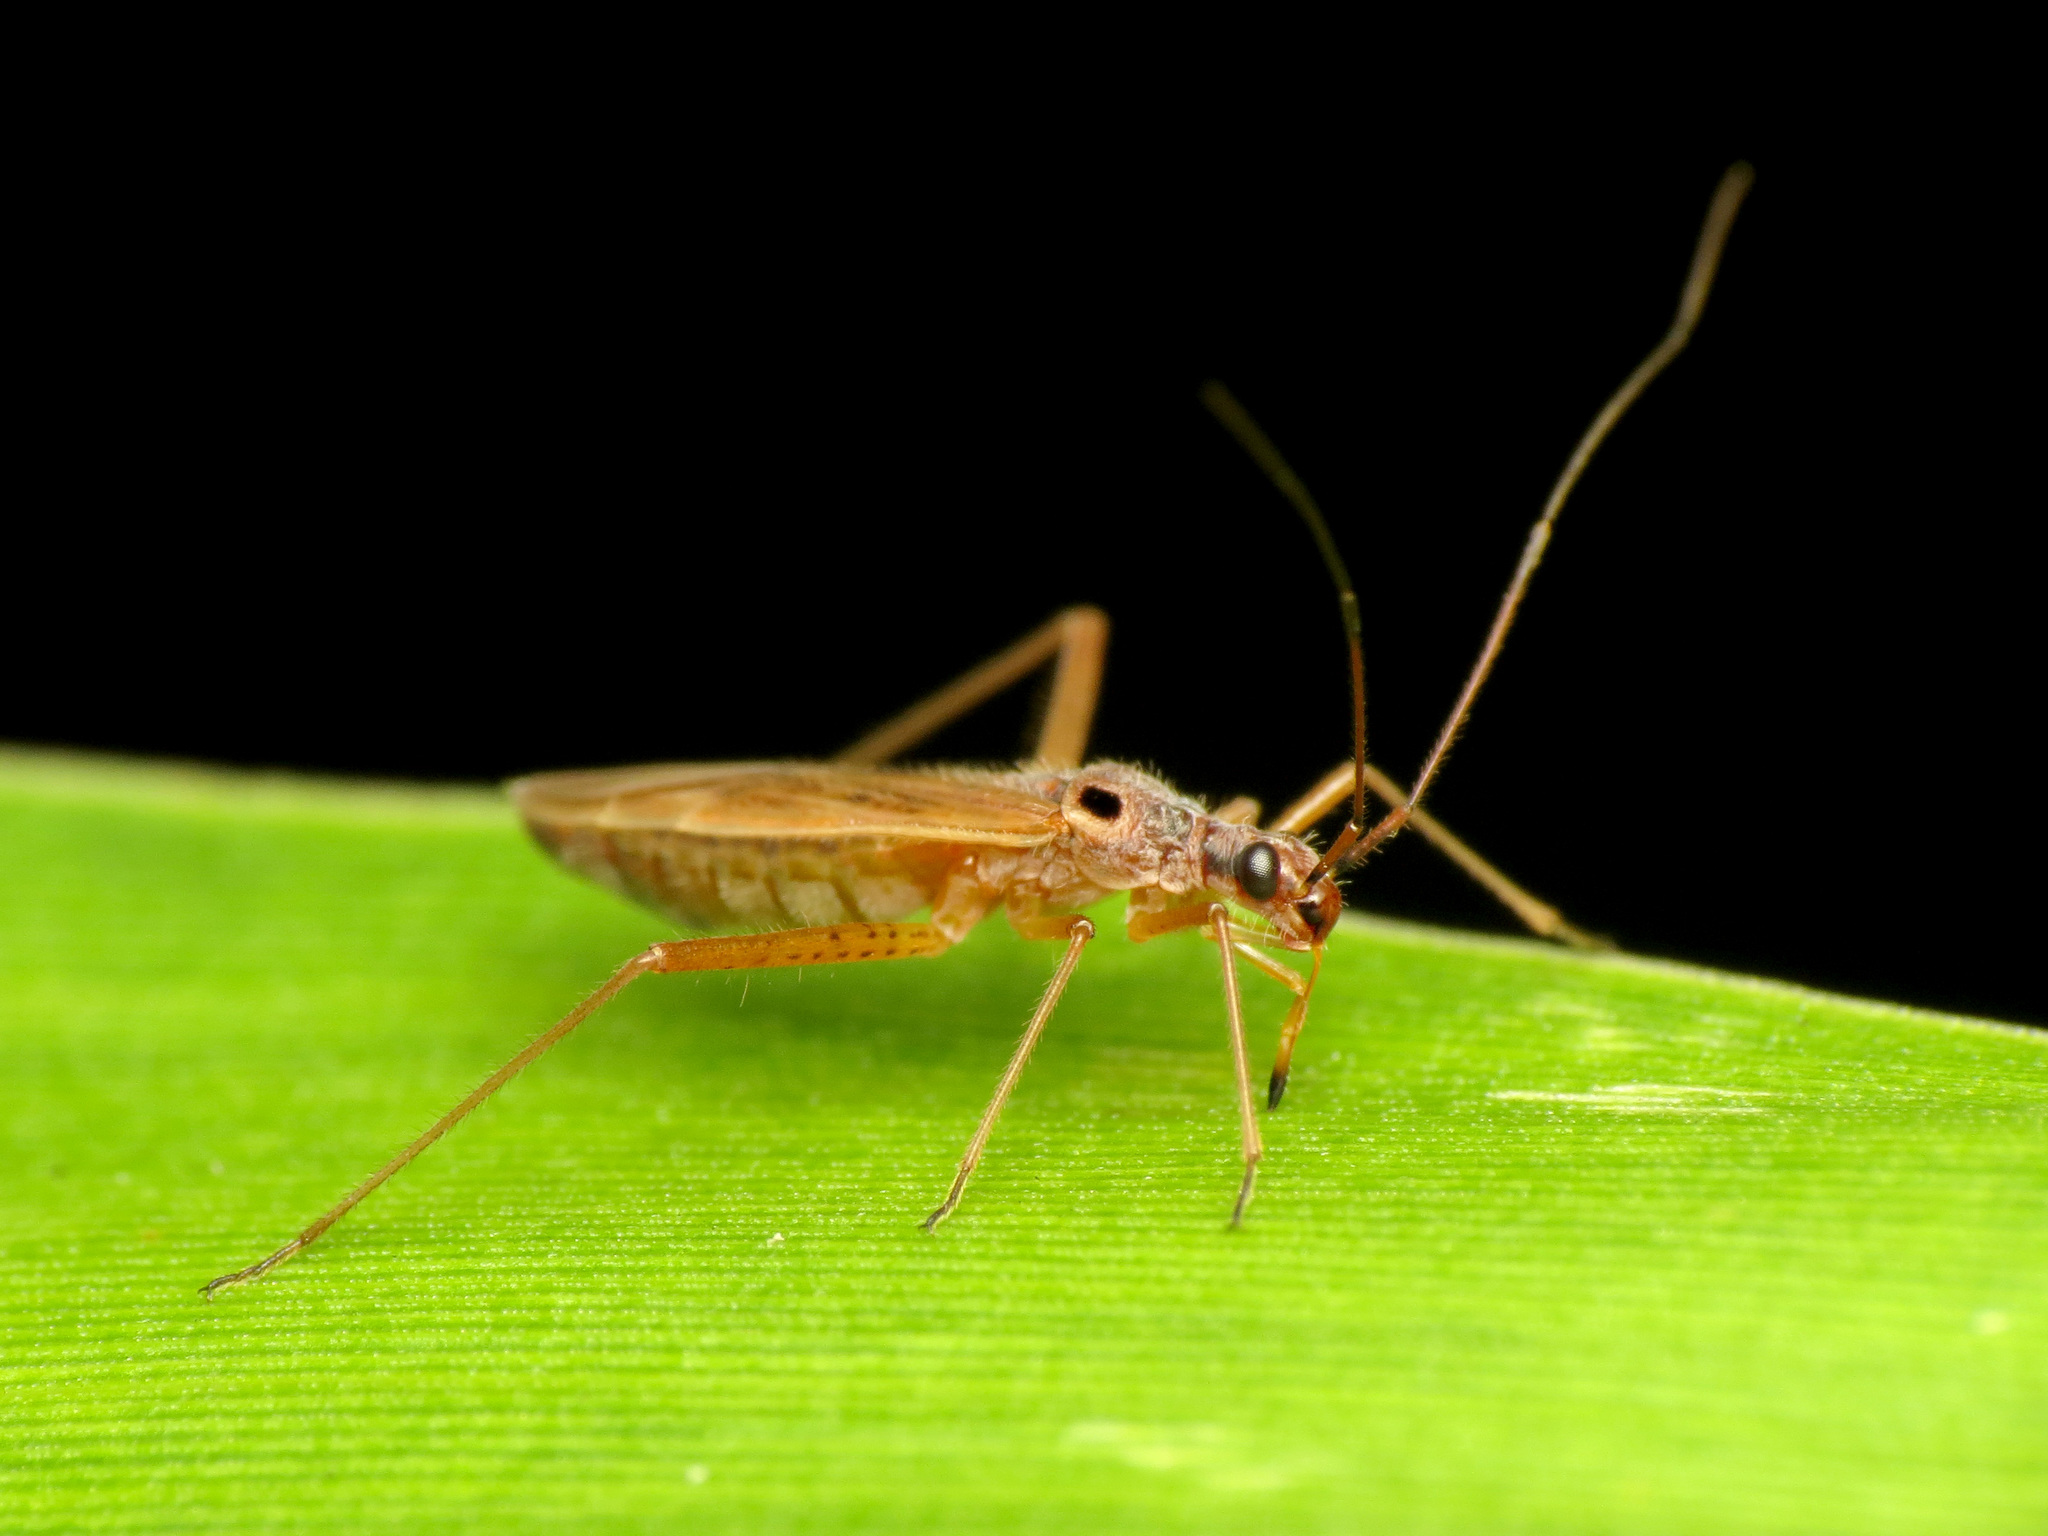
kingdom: Animalia
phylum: Arthropoda
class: Insecta
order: Hemiptera
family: Miridae
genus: Collaria
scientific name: Collaria oculata
